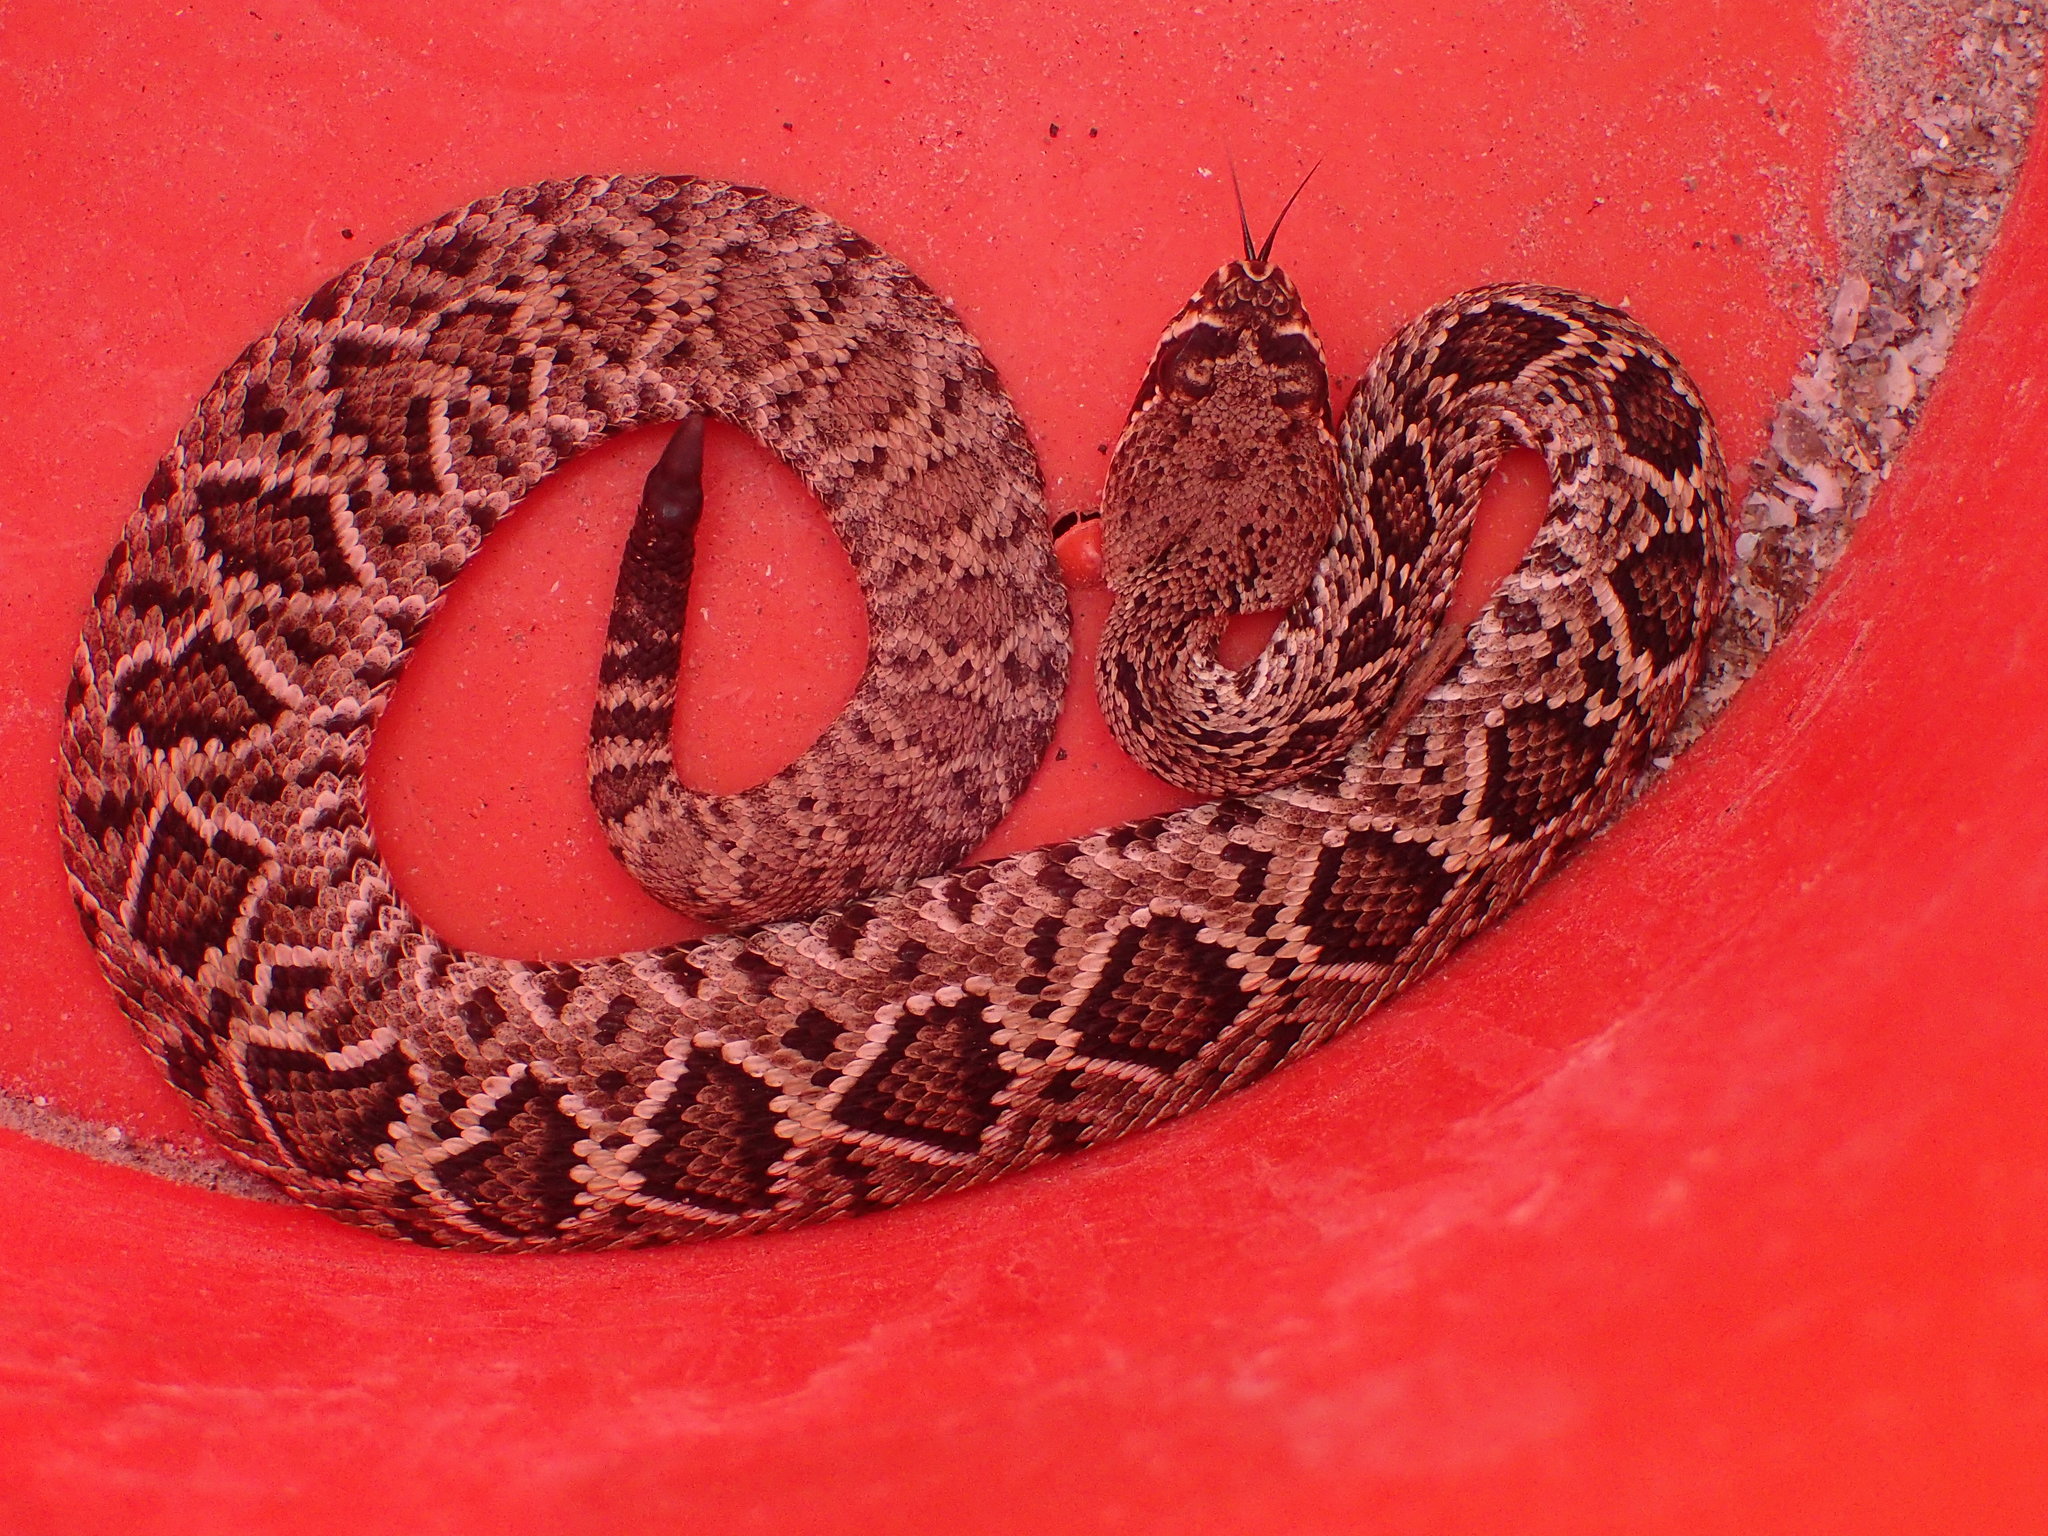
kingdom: Animalia
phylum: Chordata
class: Squamata
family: Viperidae
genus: Crotalus
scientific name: Crotalus adamanteus
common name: Eastern diamondback rattlesnake
